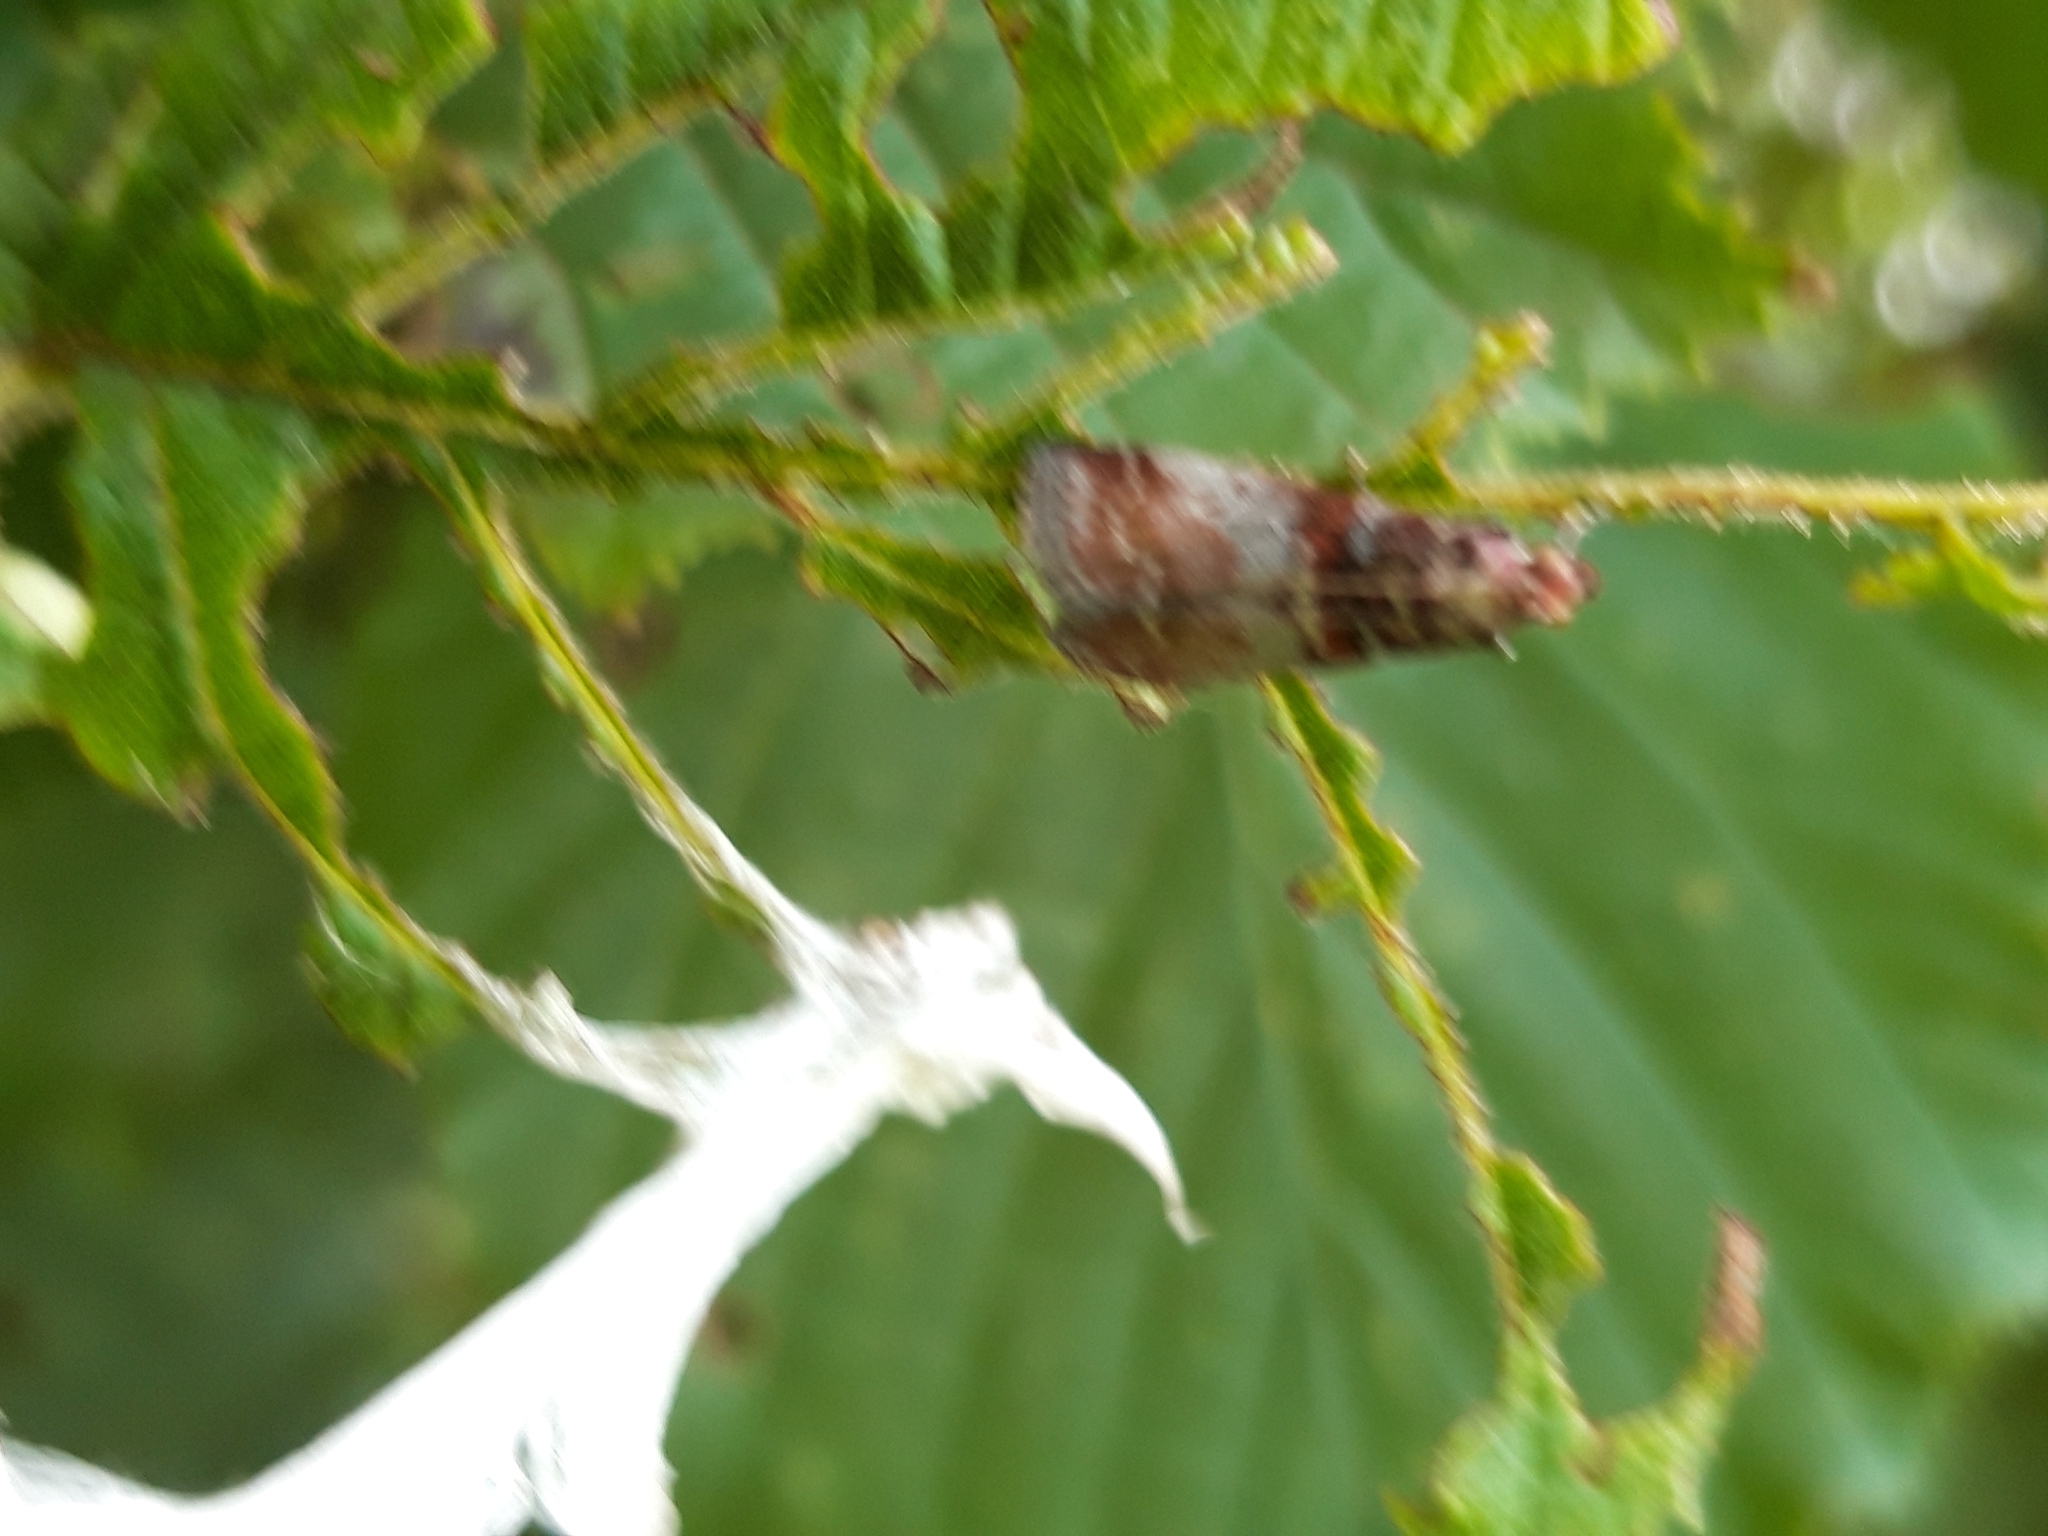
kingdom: Animalia
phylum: Arthropoda
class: Insecta
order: Lepidoptera
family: Pyralidae
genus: Acrobasis
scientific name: Acrobasis advenella
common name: Grey knot-horn
